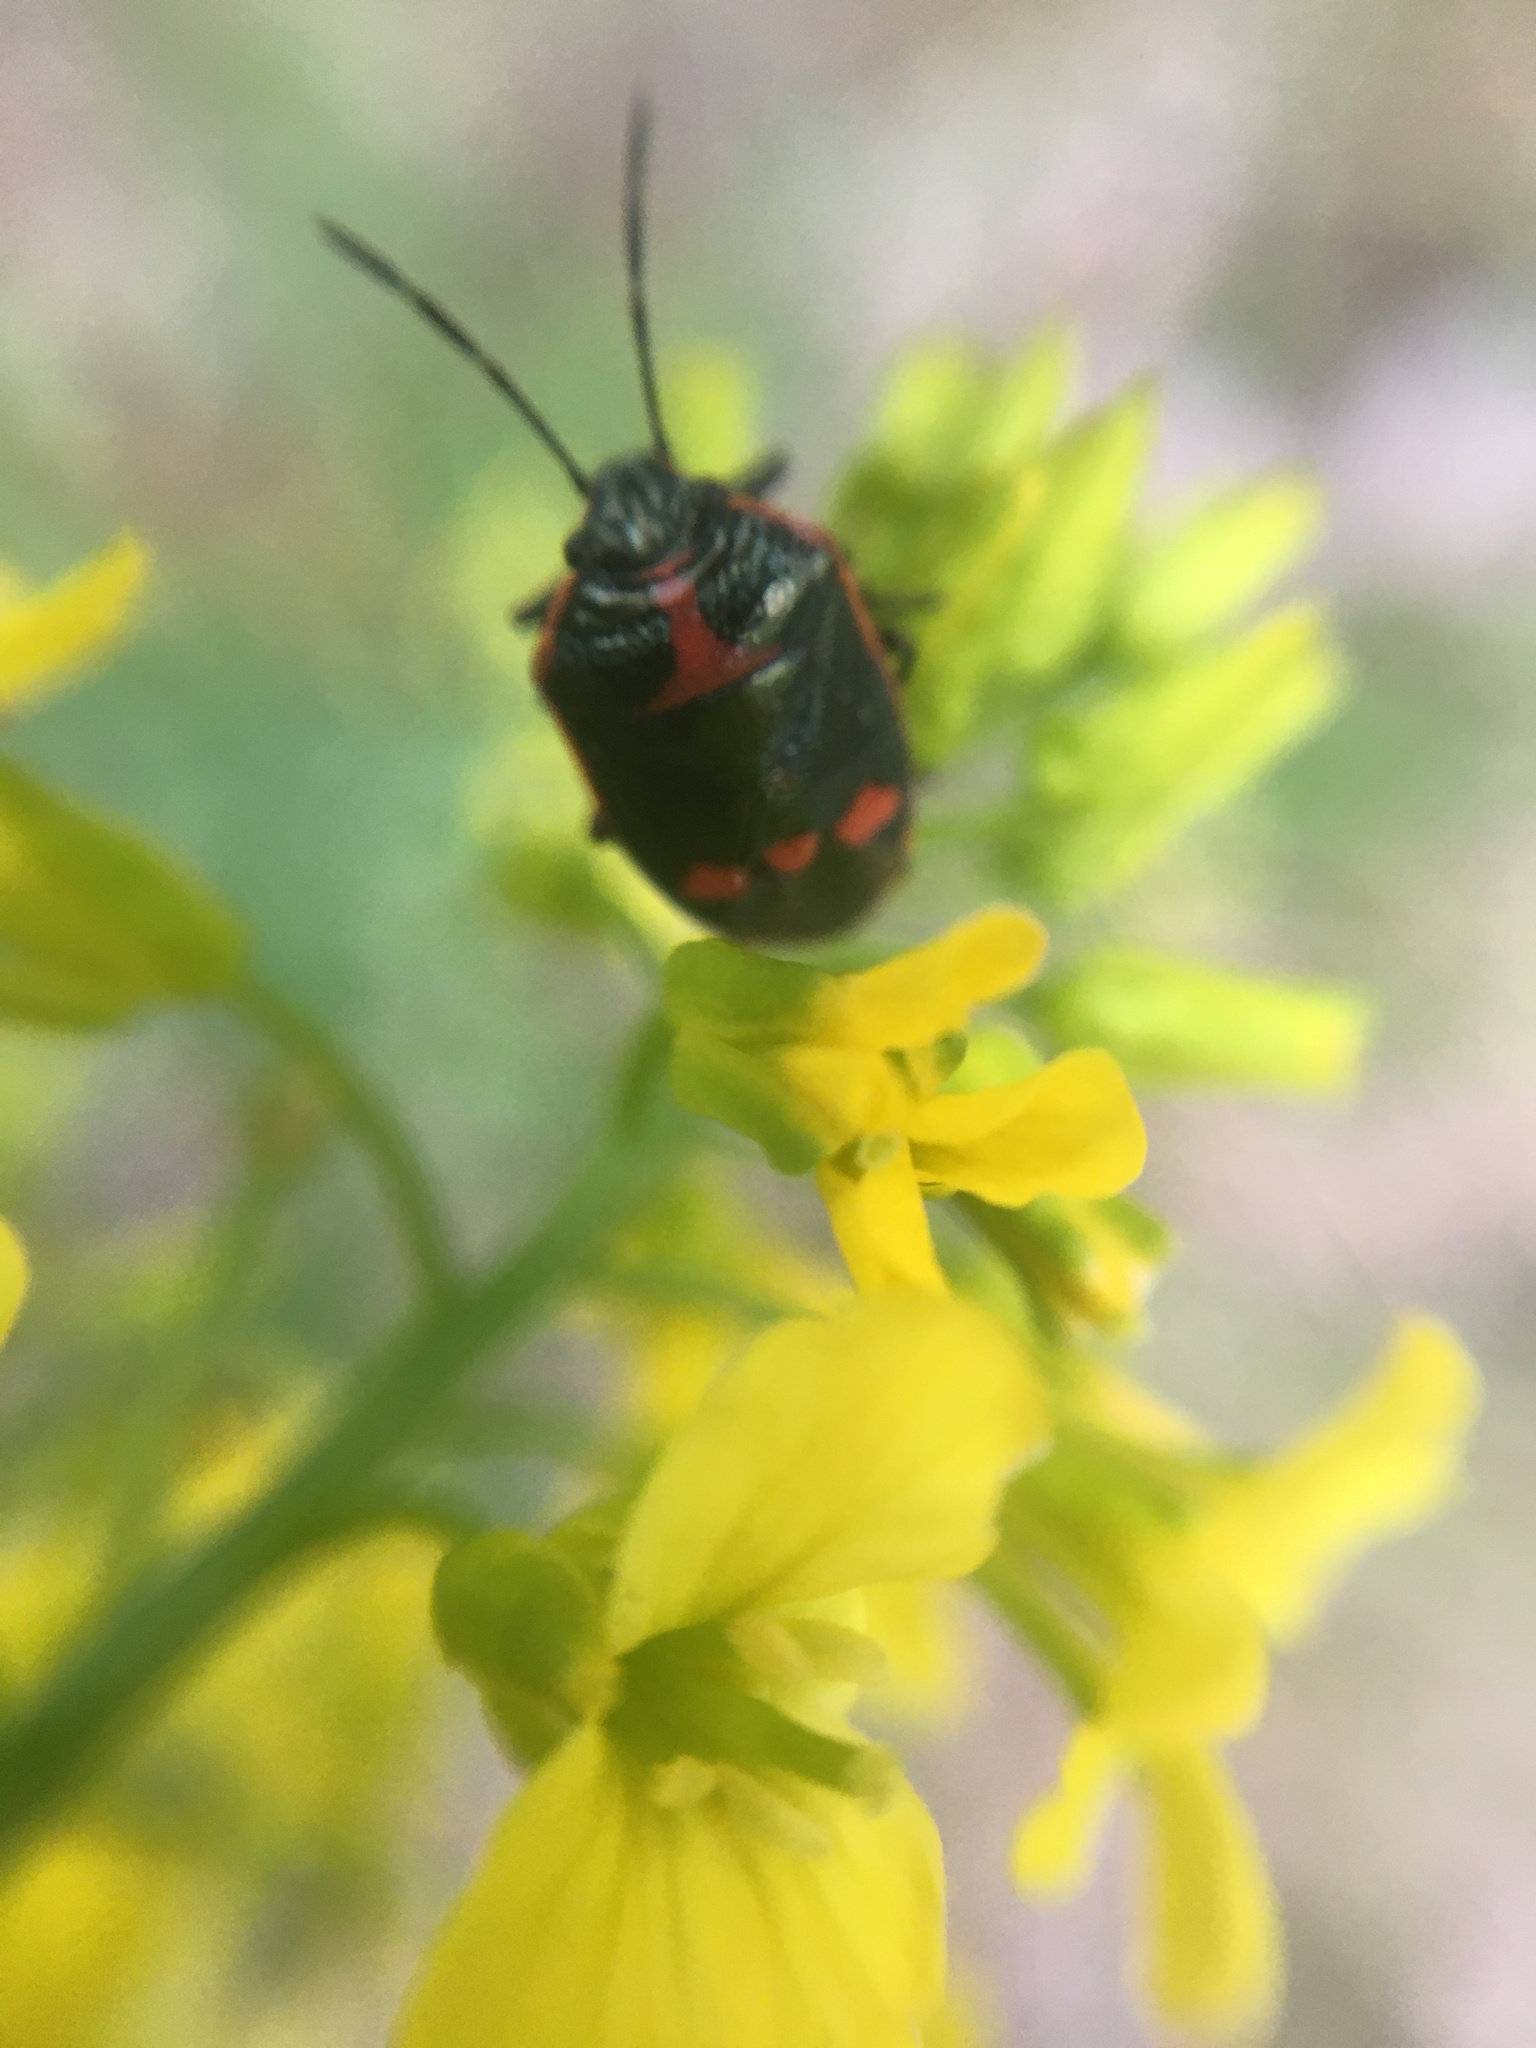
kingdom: Animalia
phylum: Arthropoda
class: Insecta
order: Hemiptera
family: Pentatomidae
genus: Eurydema
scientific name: Eurydema oleracea
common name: Cabbage bug
